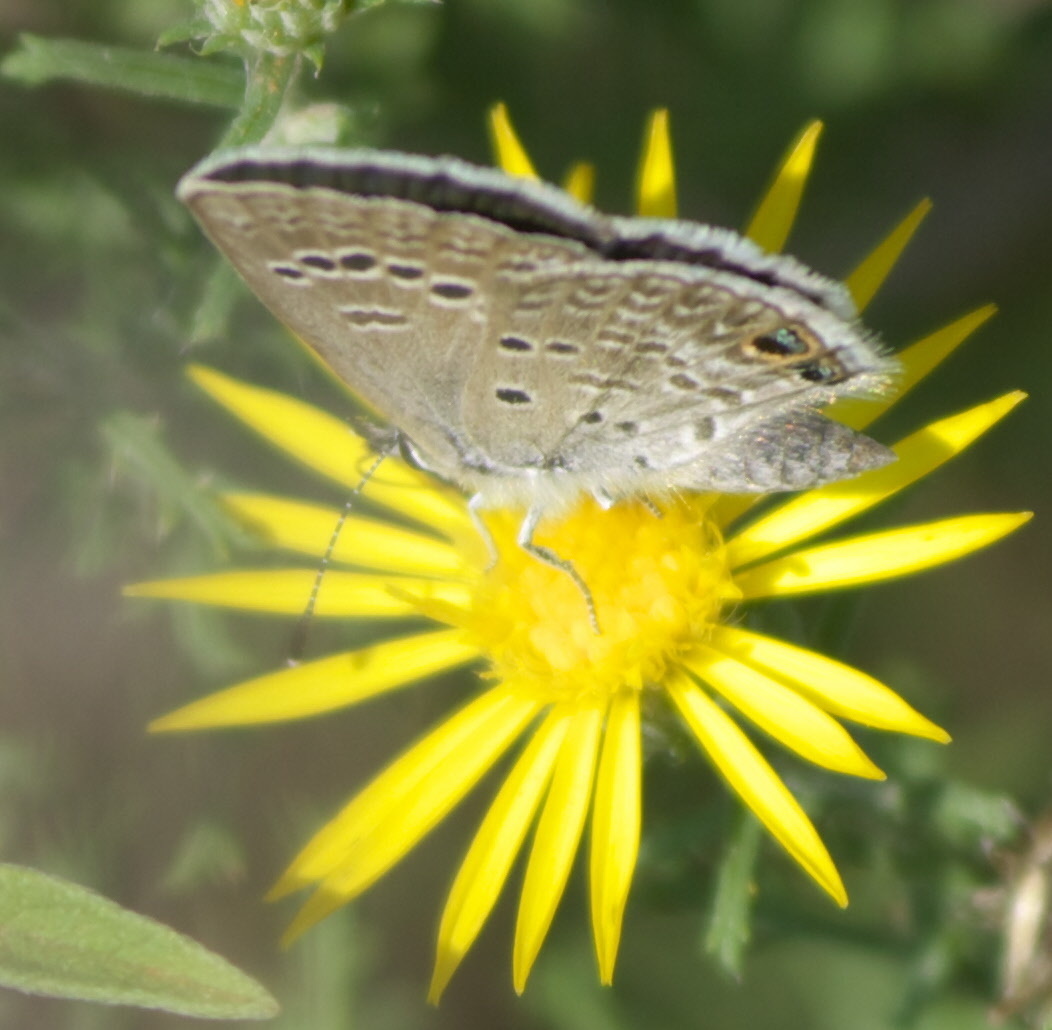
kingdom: Animalia
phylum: Arthropoda
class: Insecta
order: Lepidoptera
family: Lycaenidae
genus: Echinargus
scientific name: Echinargus isola
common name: Reakirt's blue
